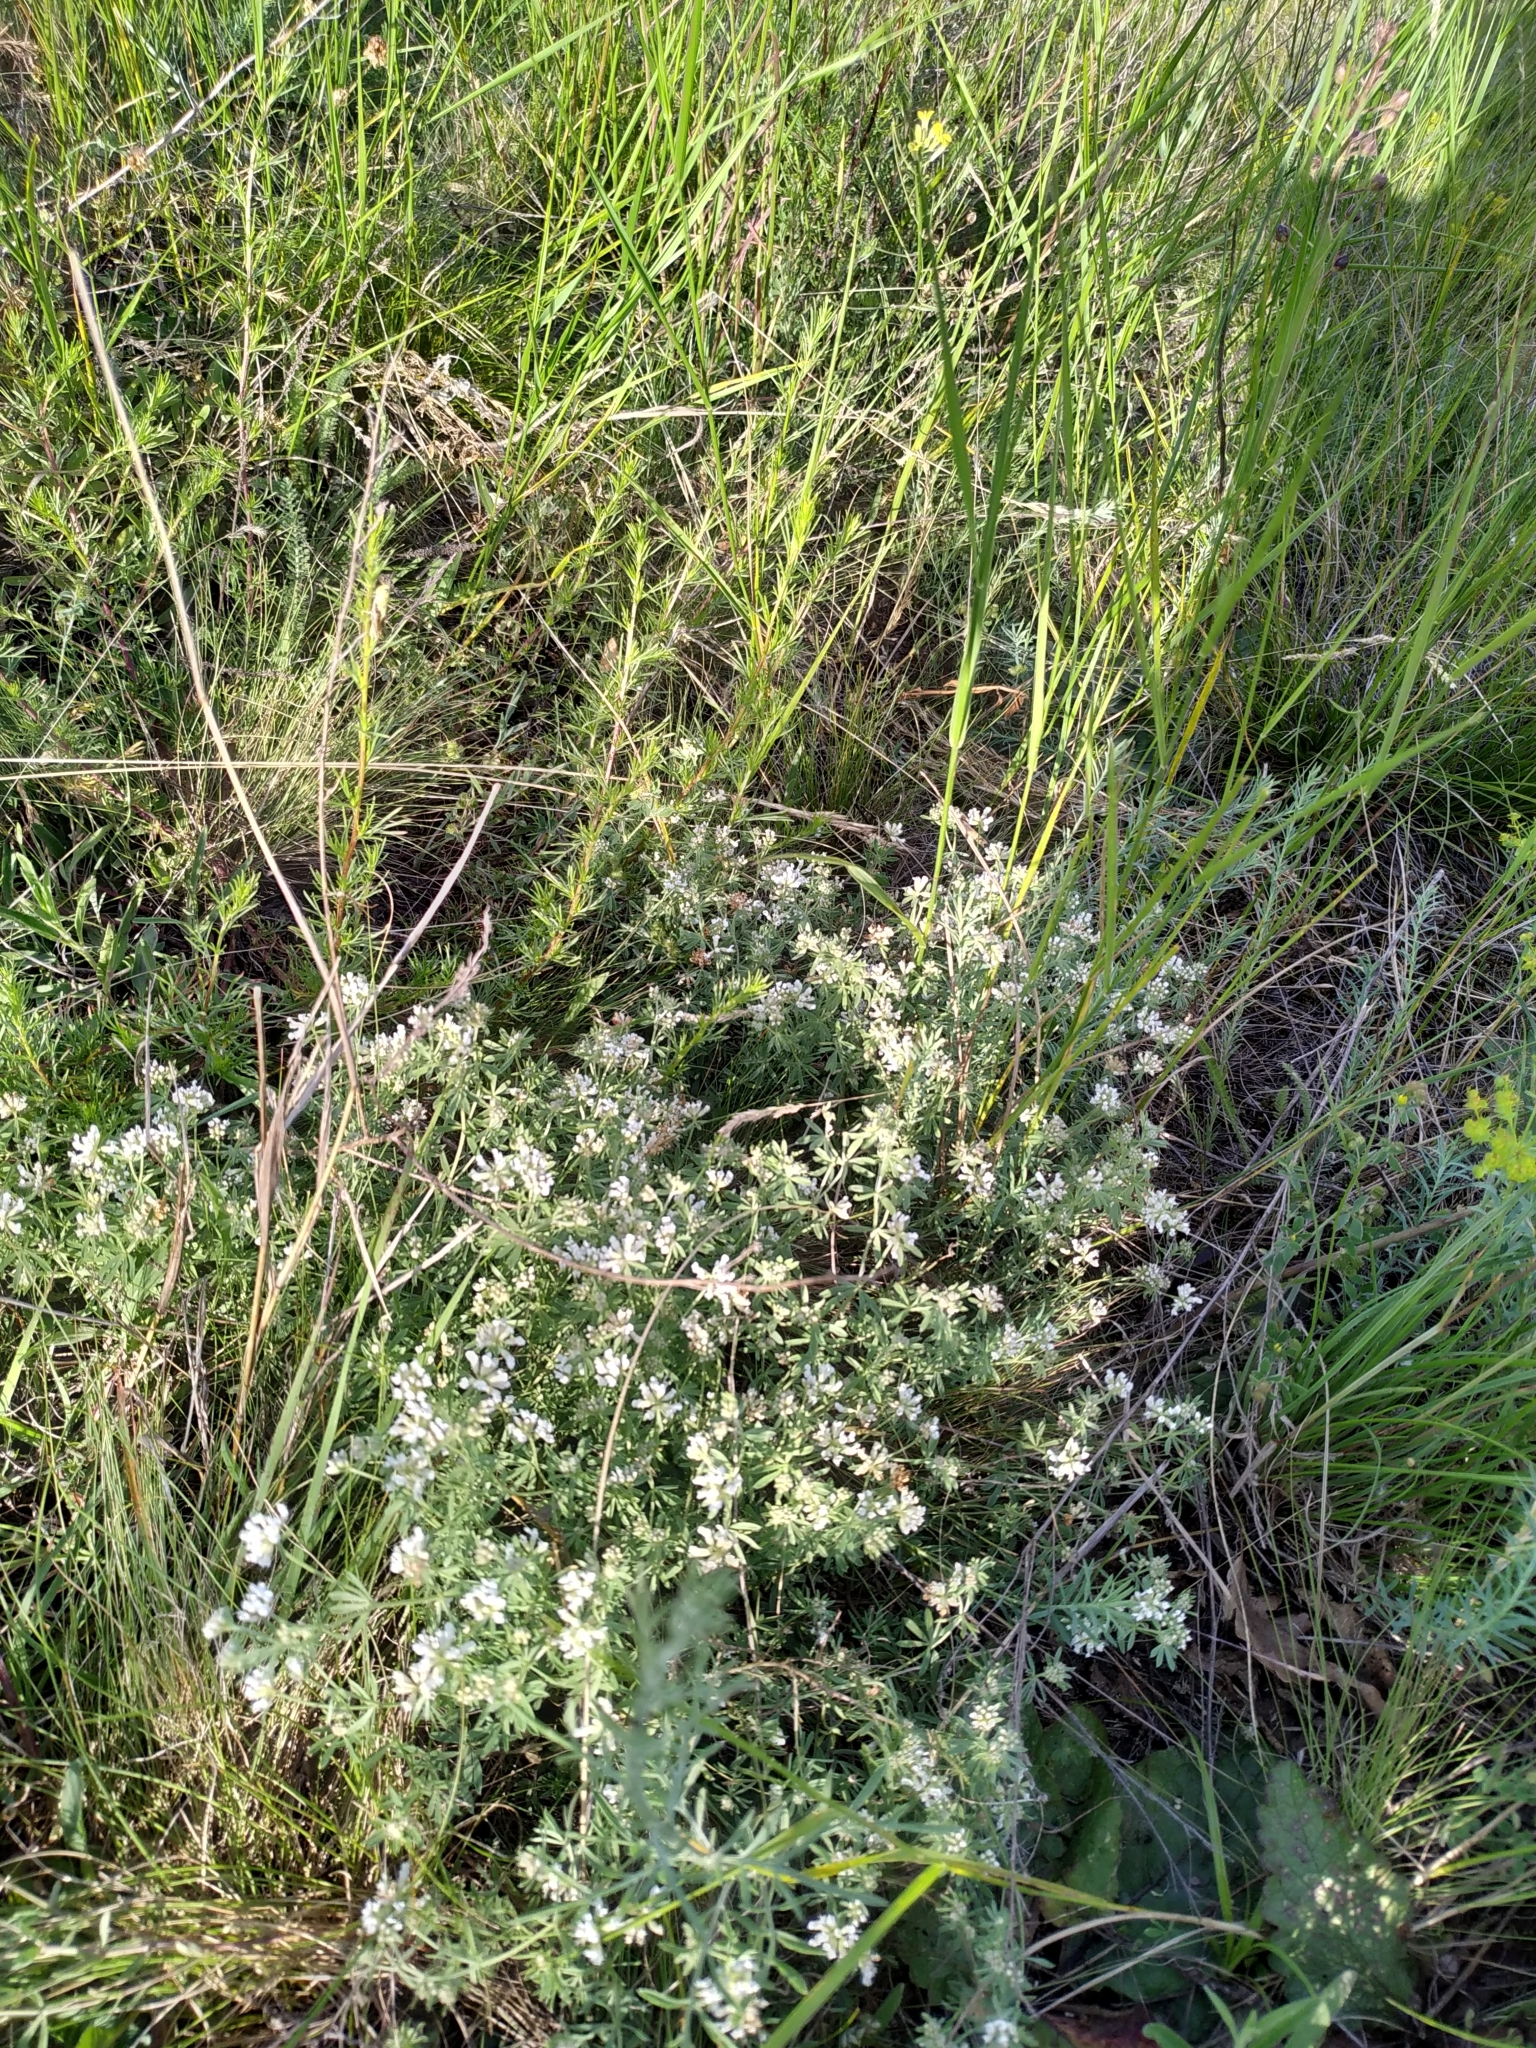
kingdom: Plantae
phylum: Tracheophyta
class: Magnoliopsida
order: Fabales
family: Fabaceae
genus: Lotus
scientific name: Lotus germanicus
